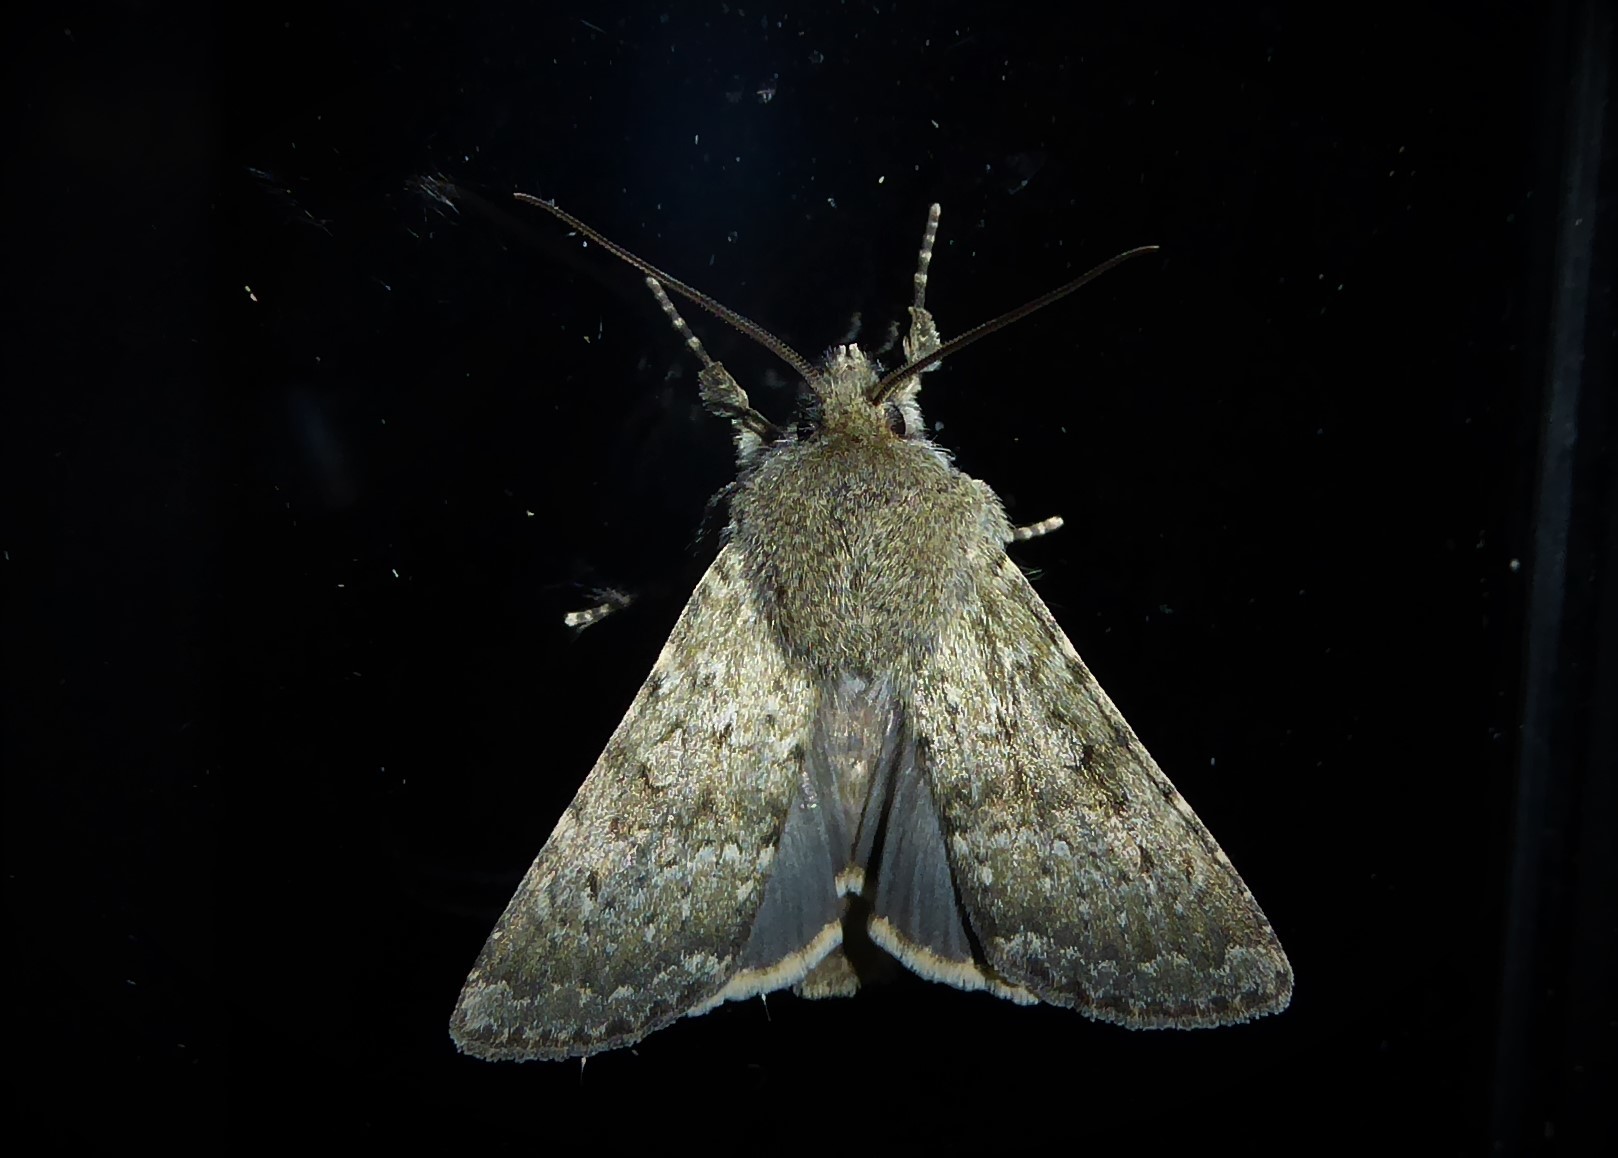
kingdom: Animalia
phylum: Arthropoda
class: Insecta
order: Lepidoptera
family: Noctuidae
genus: Ichneutica
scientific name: Ichneutica moderata
